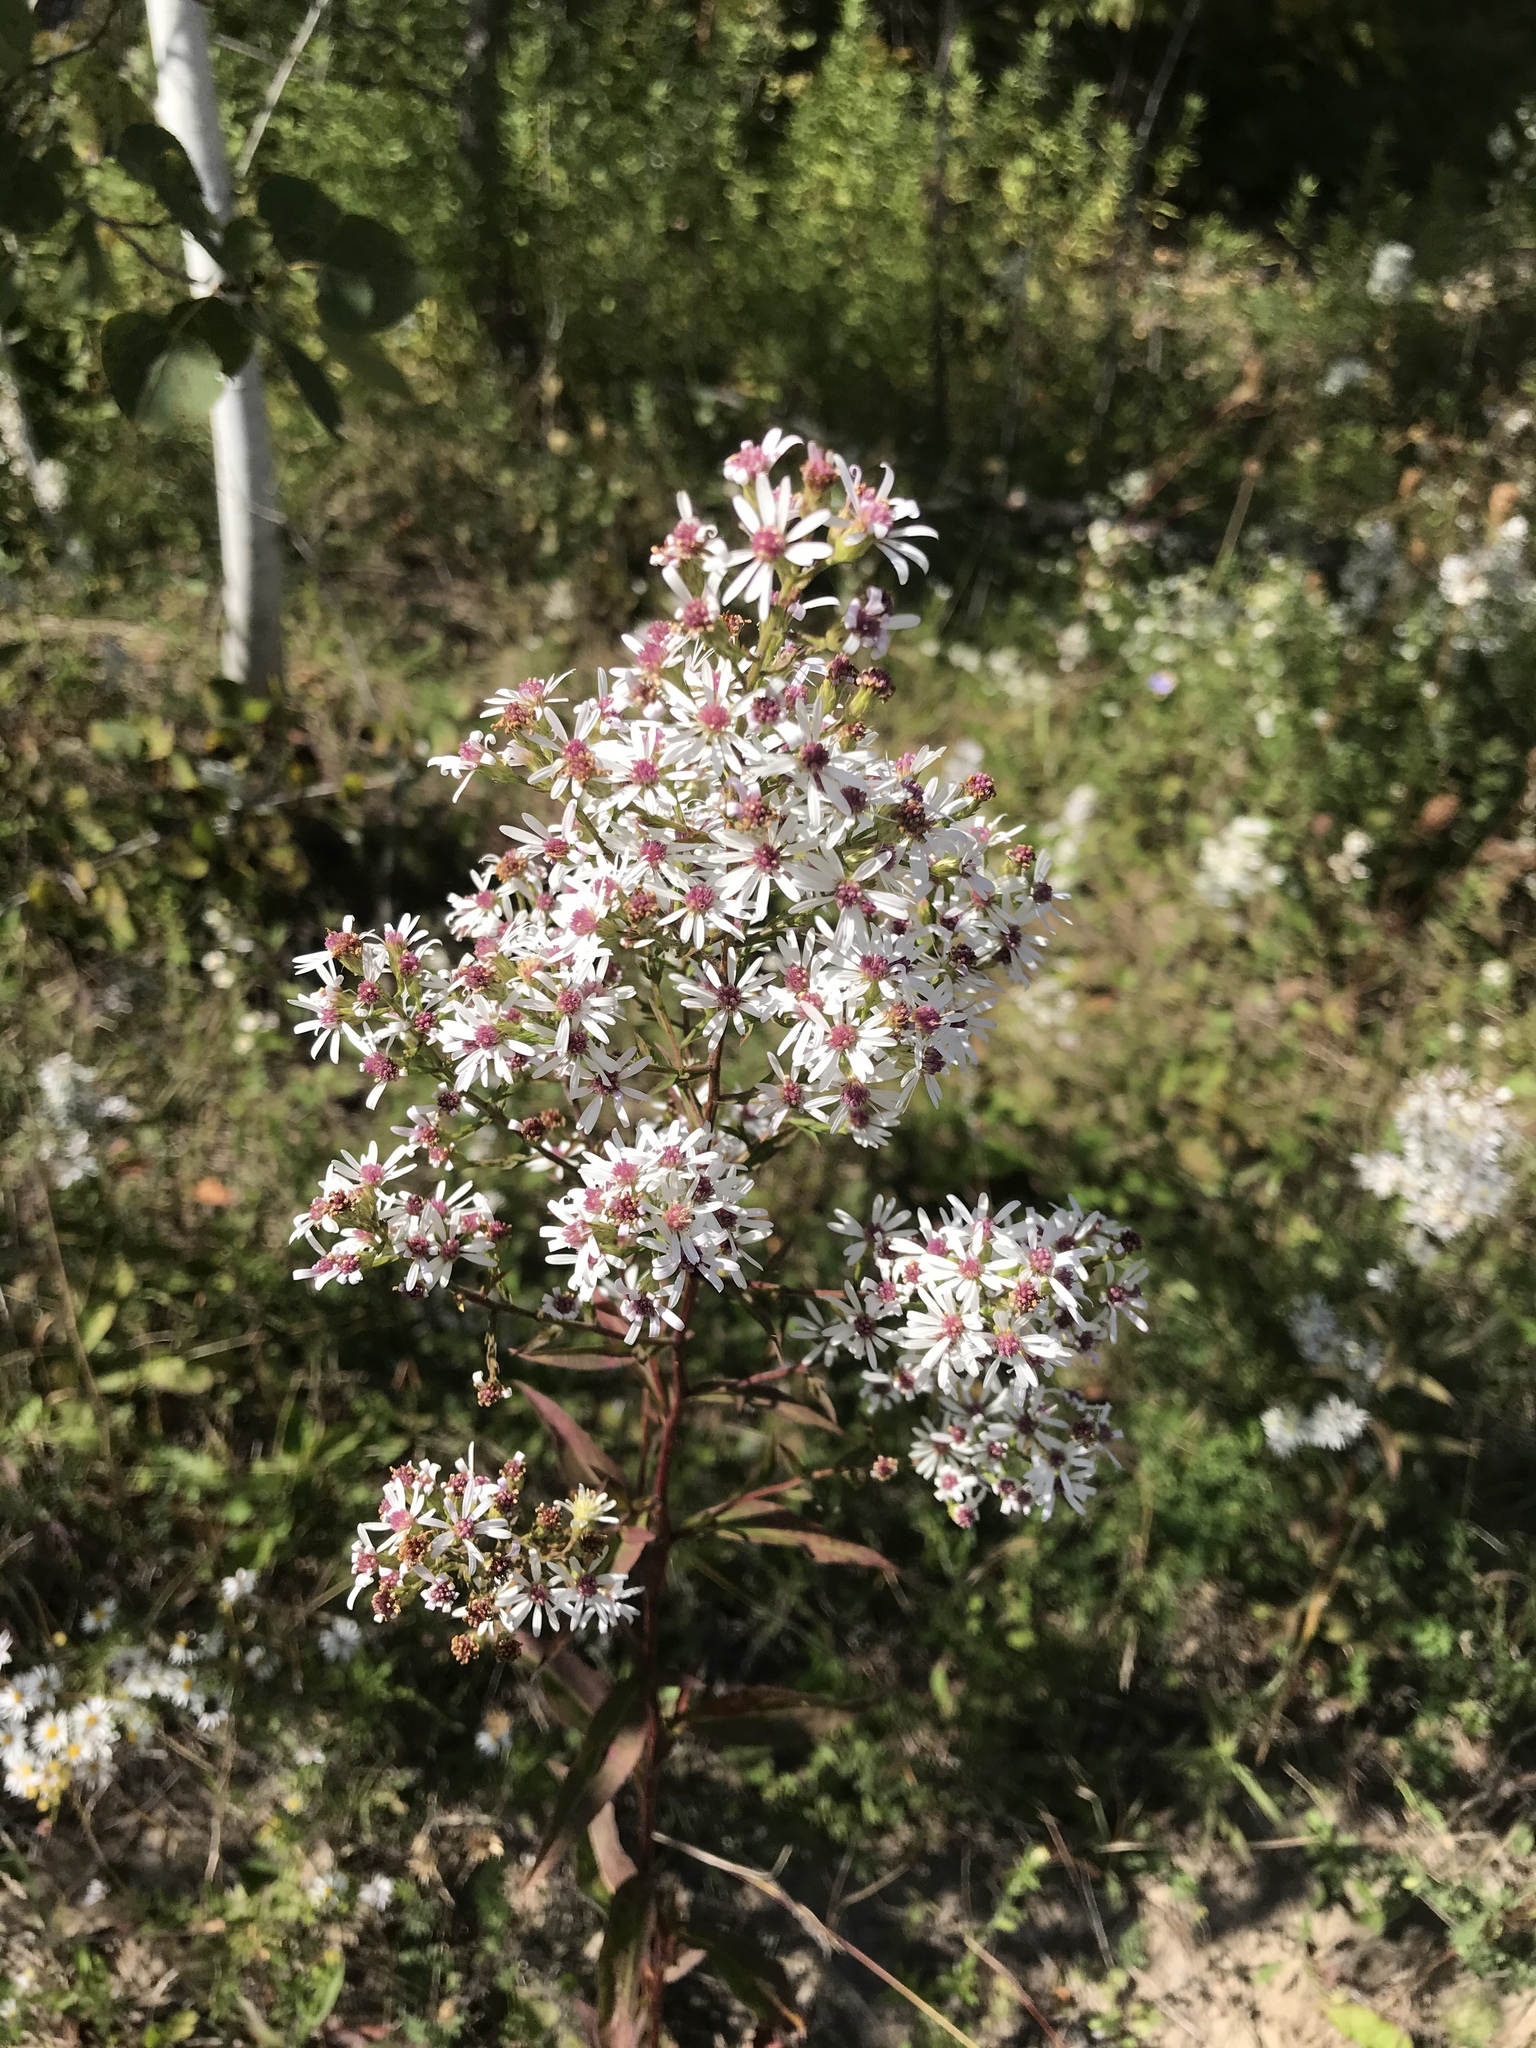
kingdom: Plantae
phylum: Tracheophyta
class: Magnoliopsida
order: Asterales
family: Asteraceae
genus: Symphyotrichum
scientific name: Symphyotrichum urophyllum
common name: Arrow-leaved aster
